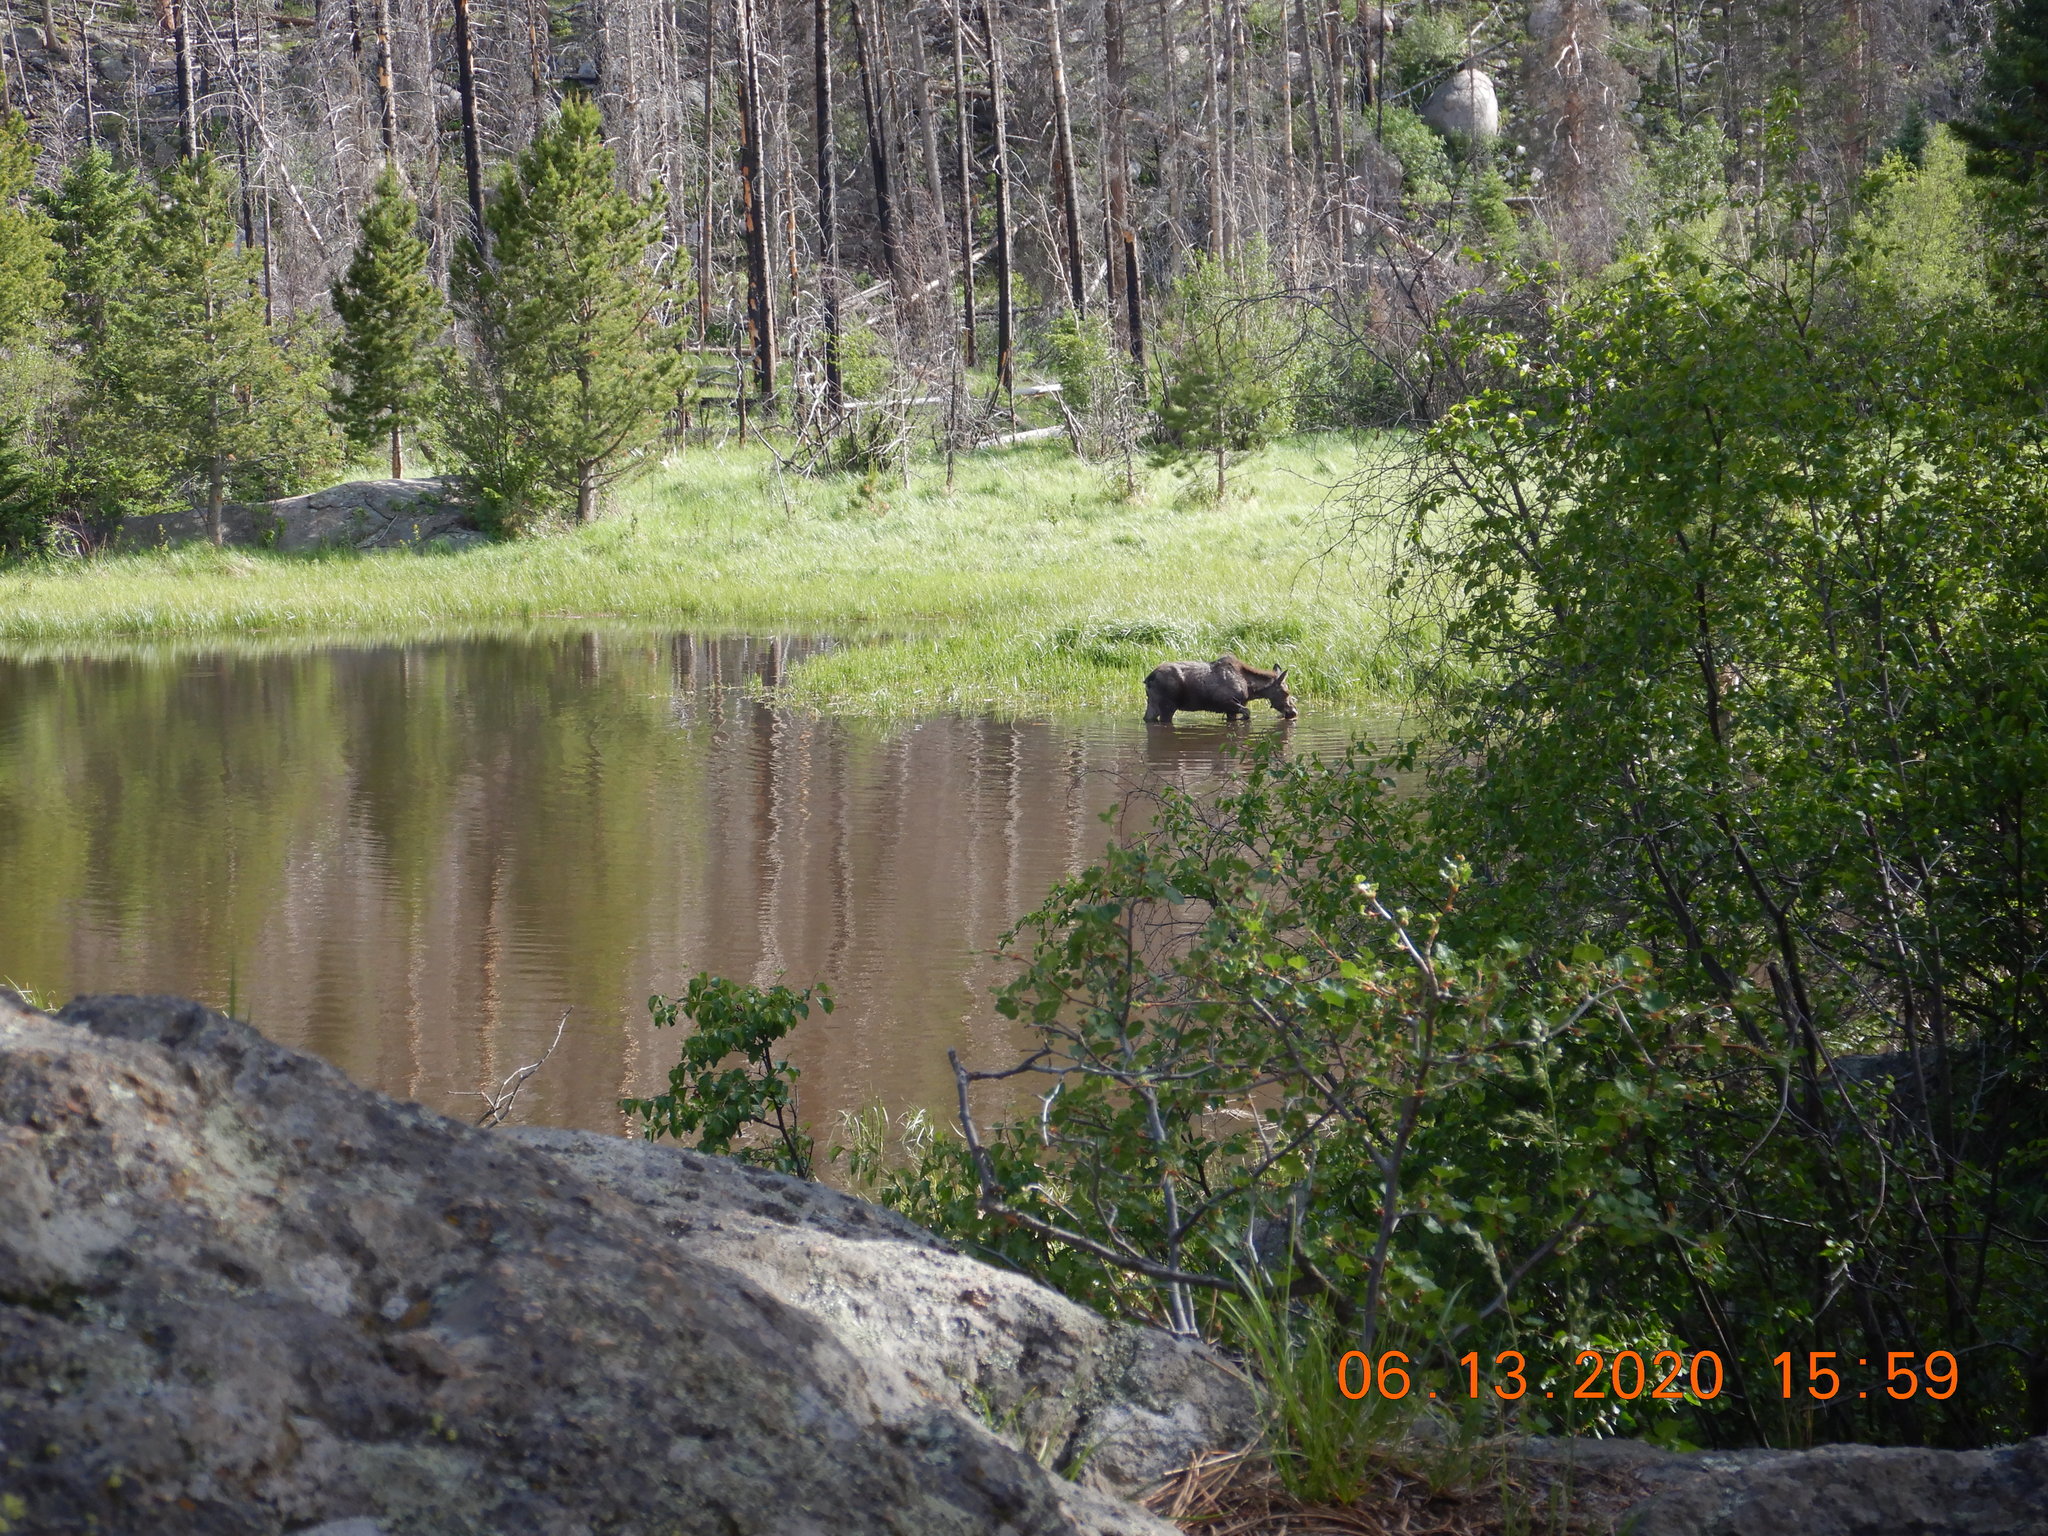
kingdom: Animalia
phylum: Chordata
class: Mammalia
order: Artiodactyla
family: Cervidae
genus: Alces
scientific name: Alces alces
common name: Moose
